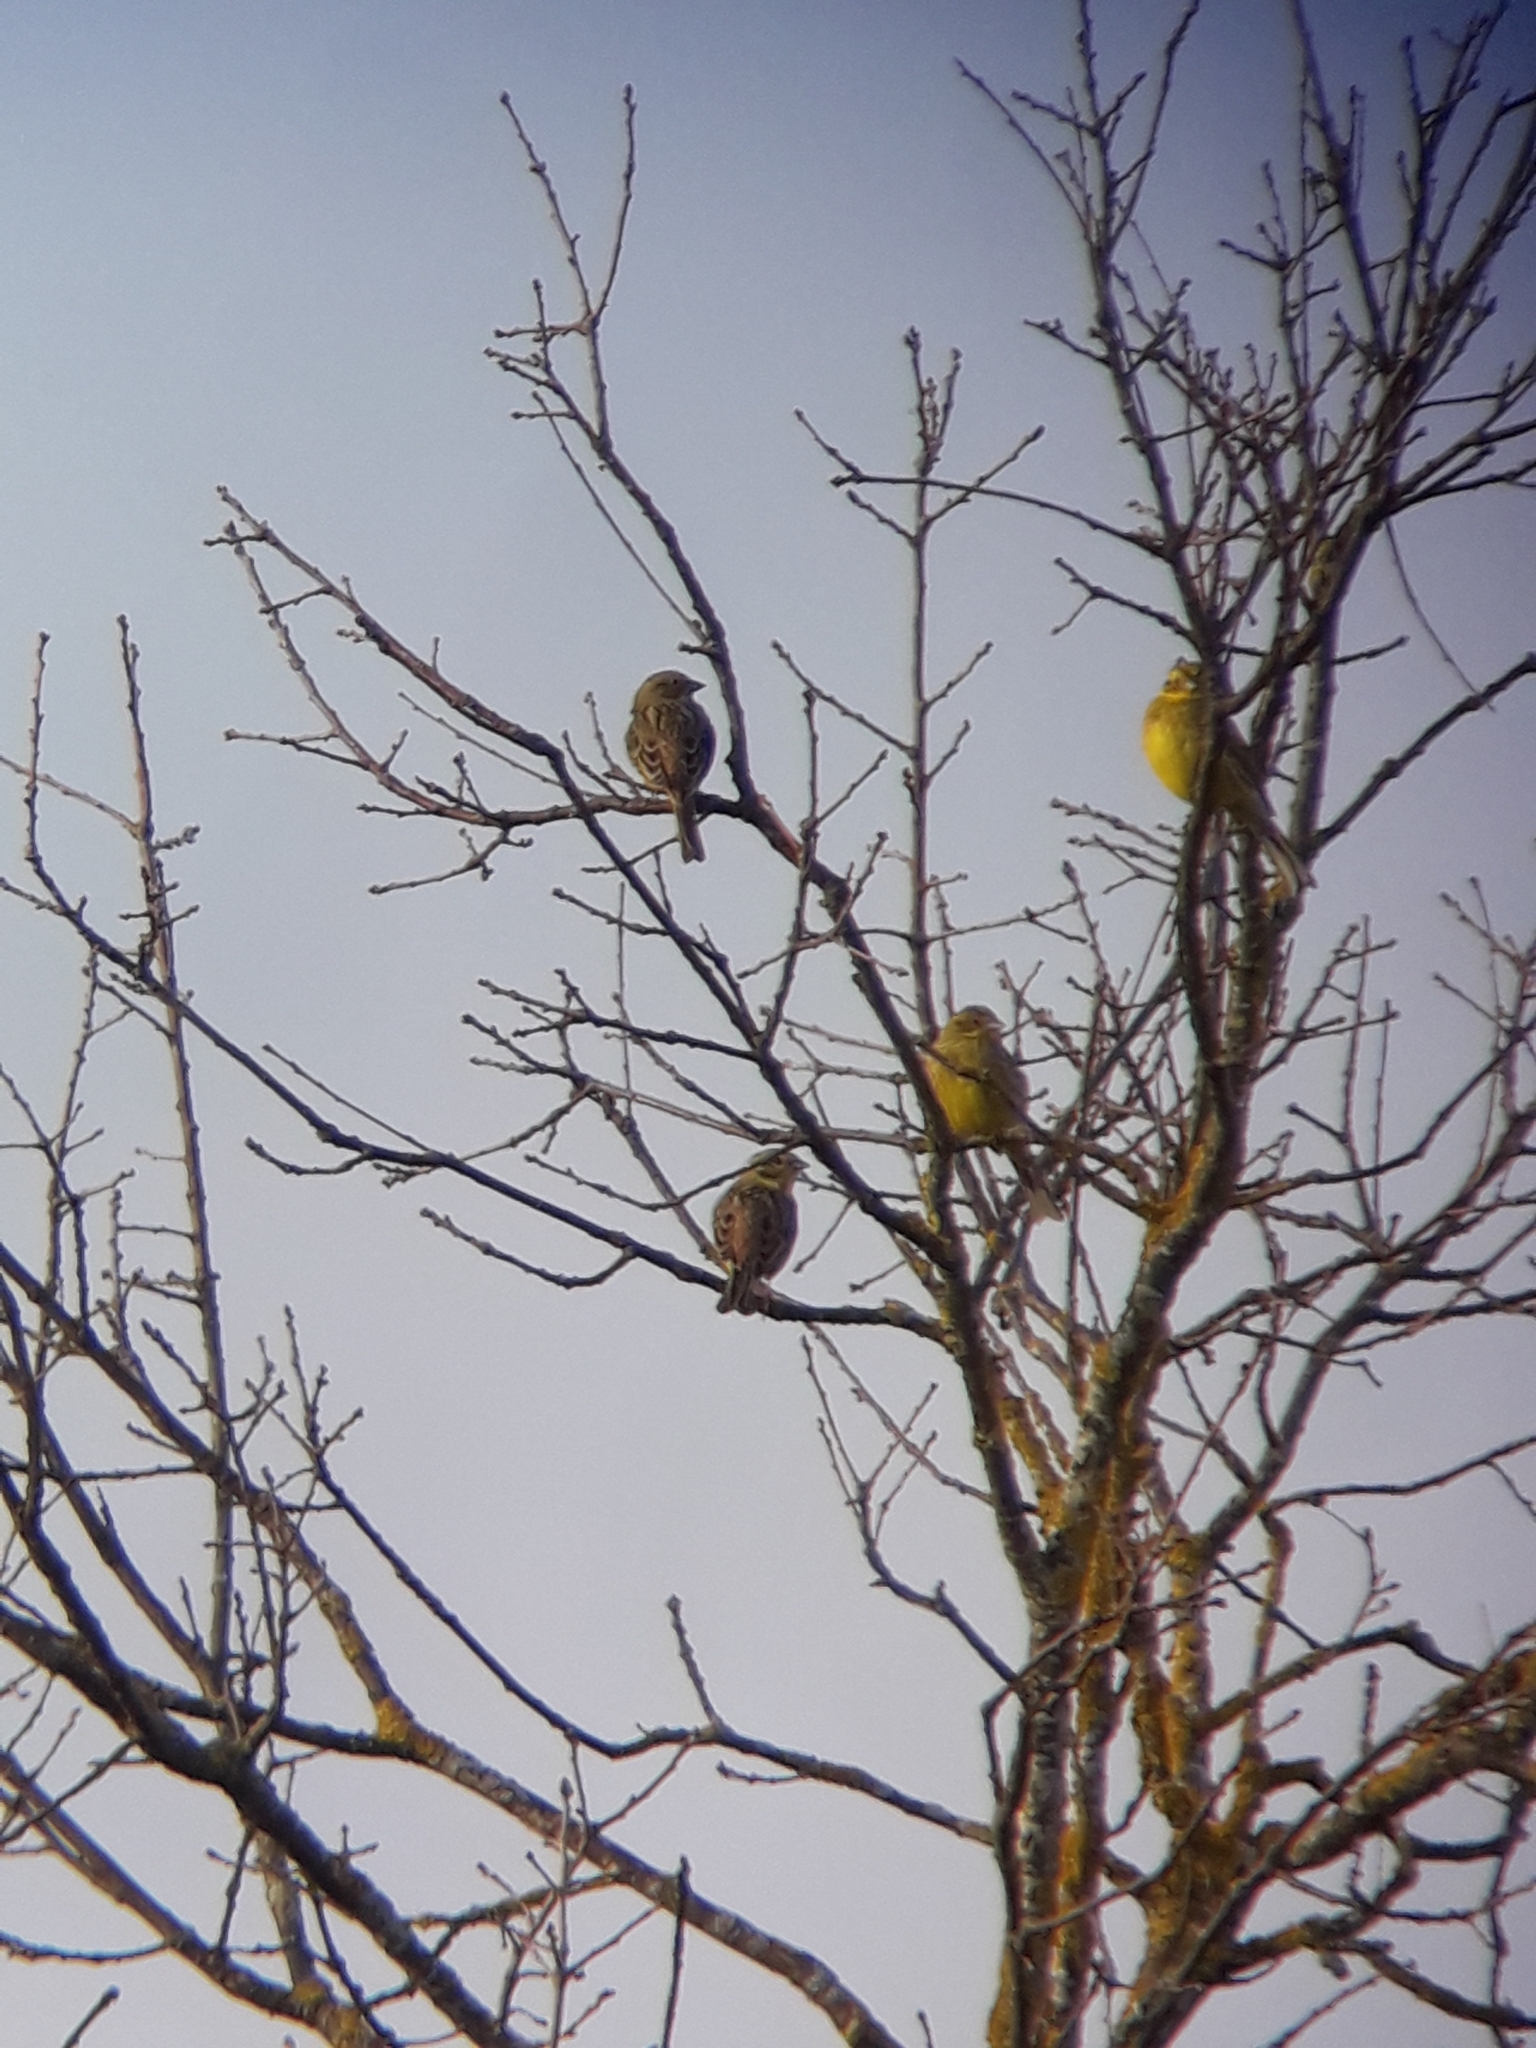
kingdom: Animalia
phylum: Chordata
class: Aves
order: Passeriformes
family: Emberizidae
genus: Emberiza
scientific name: Emberiza citrinella
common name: Yellowhammer
